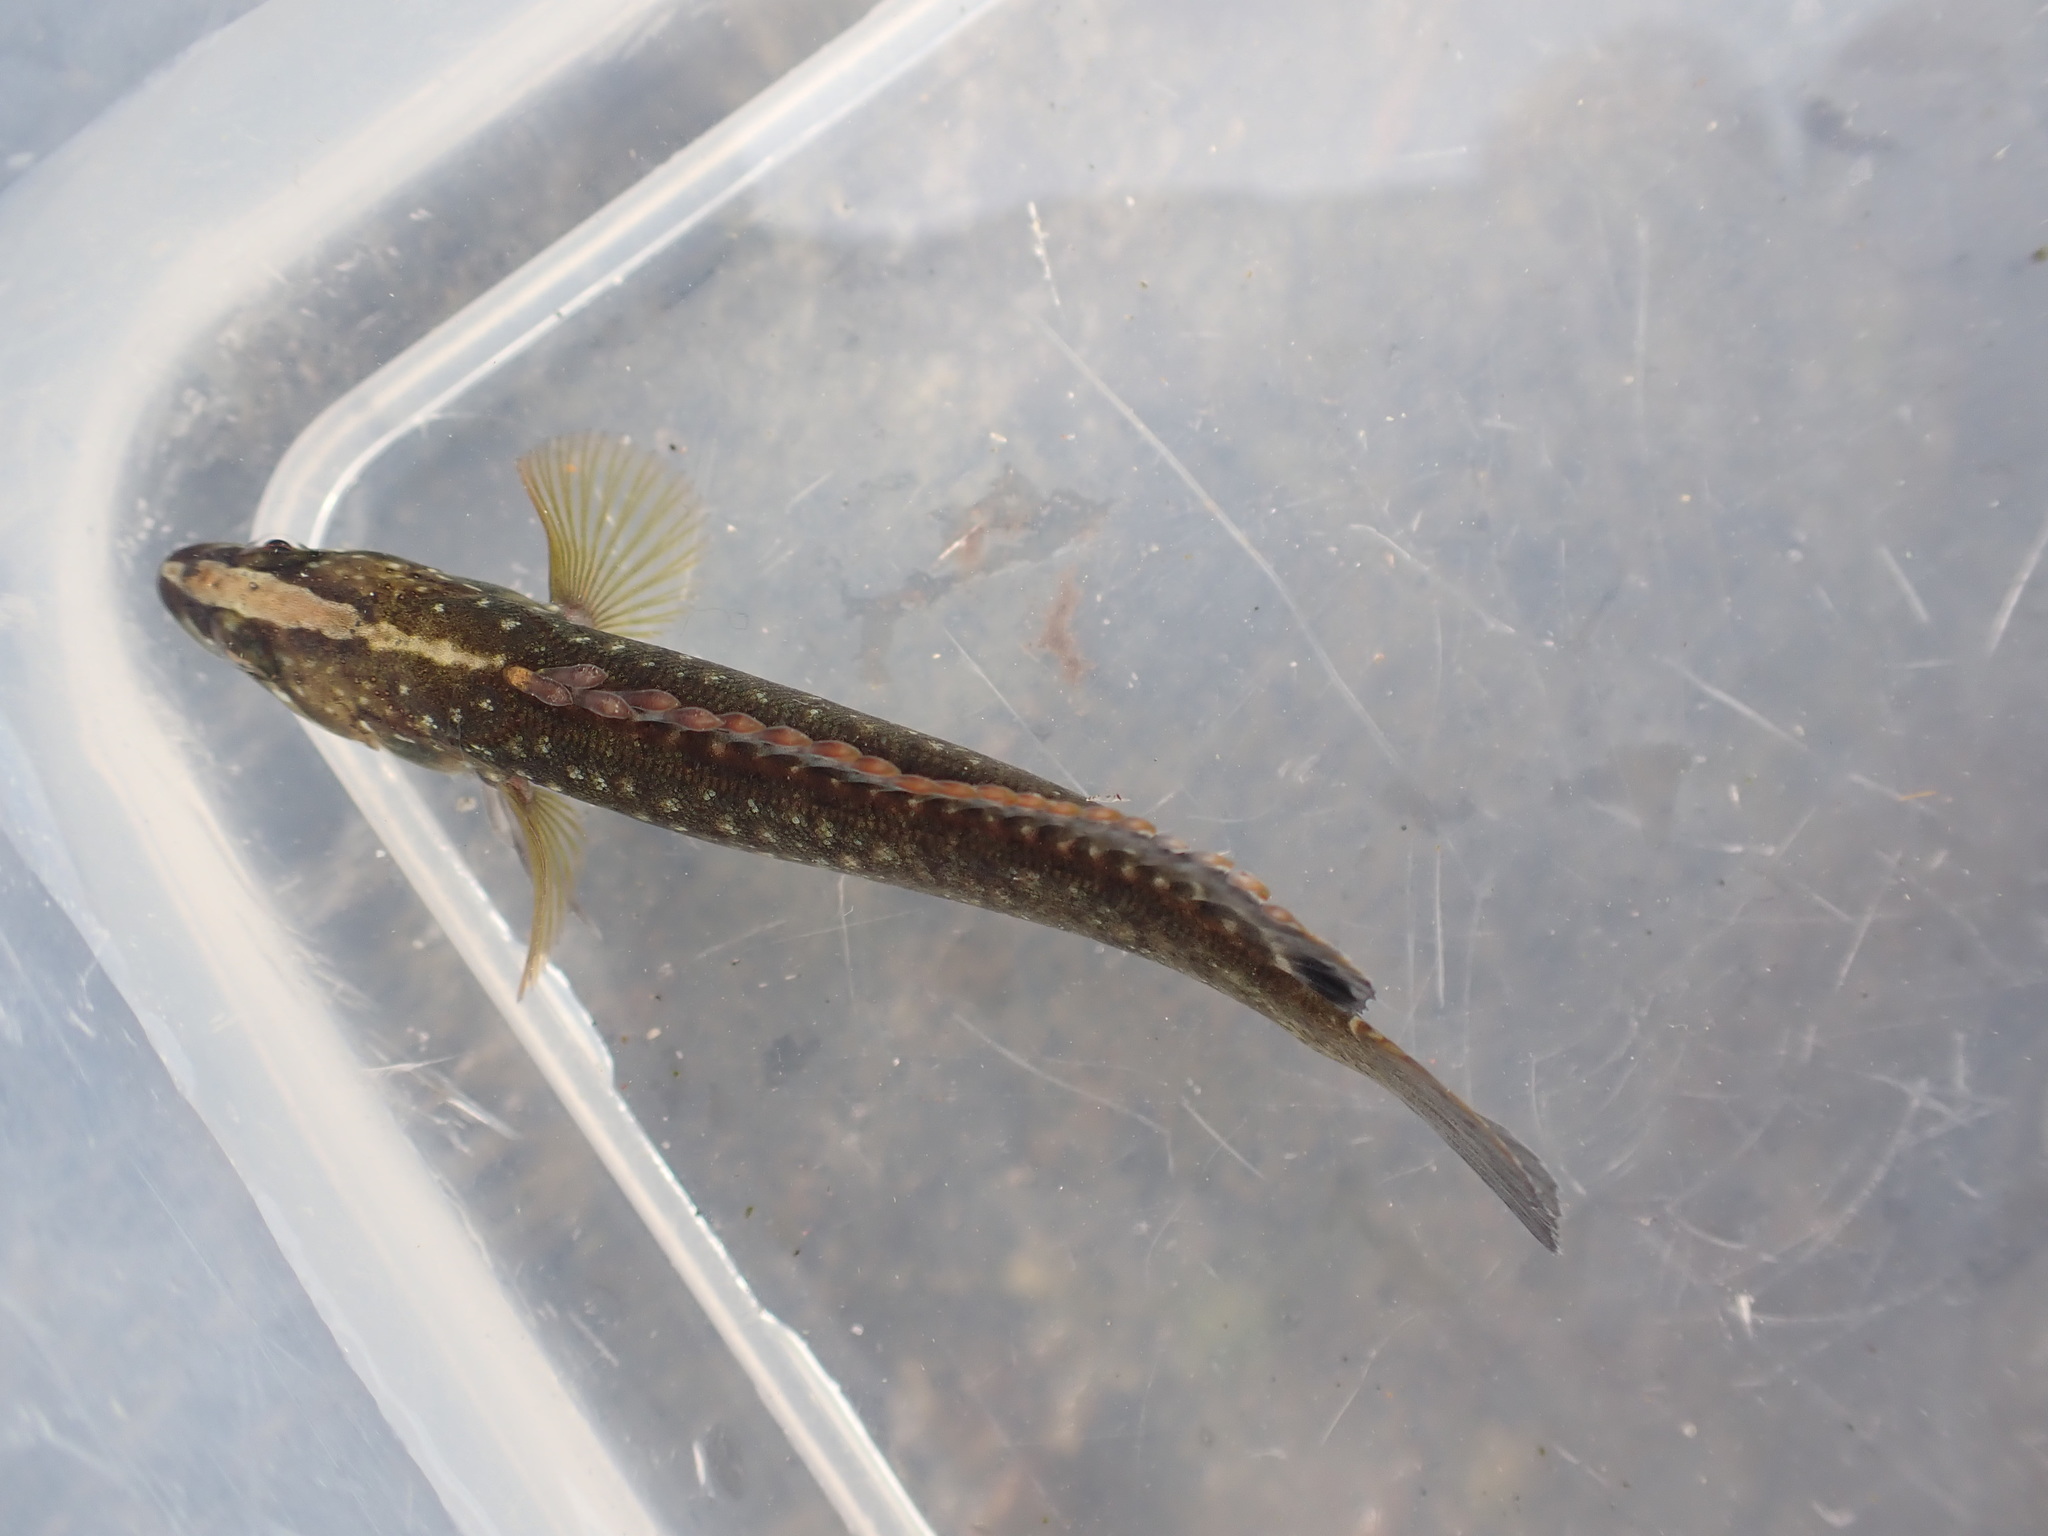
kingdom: Animalia
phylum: Chordata
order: Perciformes
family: Plesiopidae
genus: Acanthoclinus
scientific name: Acanthoclinus fuscus
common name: Olive rockfish
